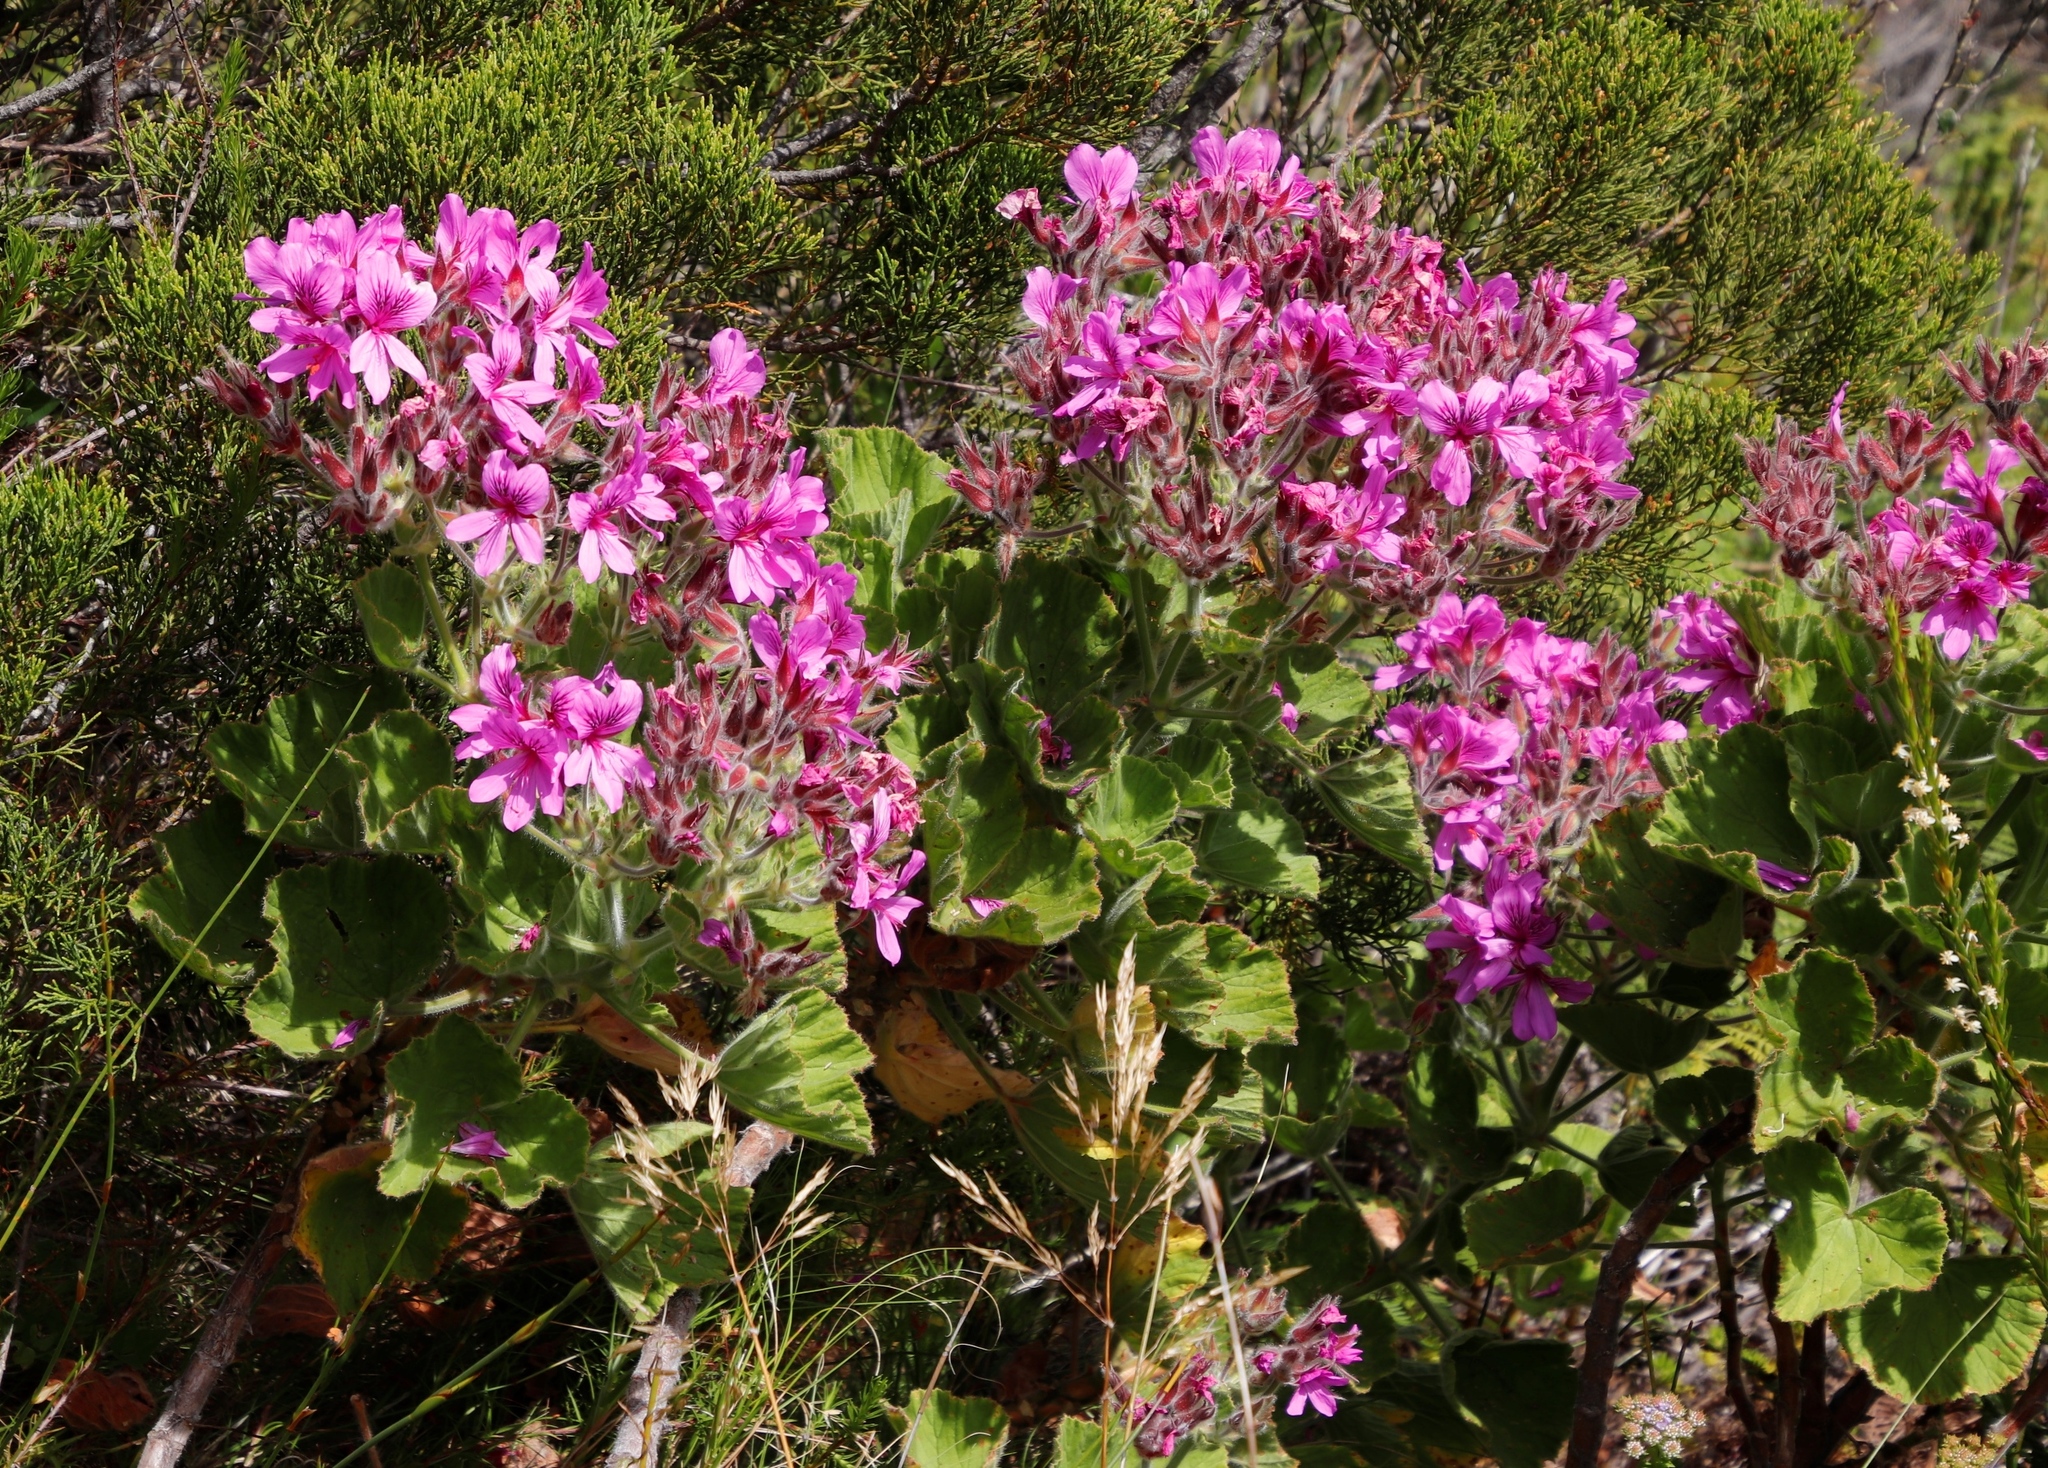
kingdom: Plantae
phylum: Tracheophyta
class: Magnoliopsida
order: Geraniales
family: Geraniaceae
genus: Pelargonium
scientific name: Pelargonium cucullatum
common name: Tree pelargonium
